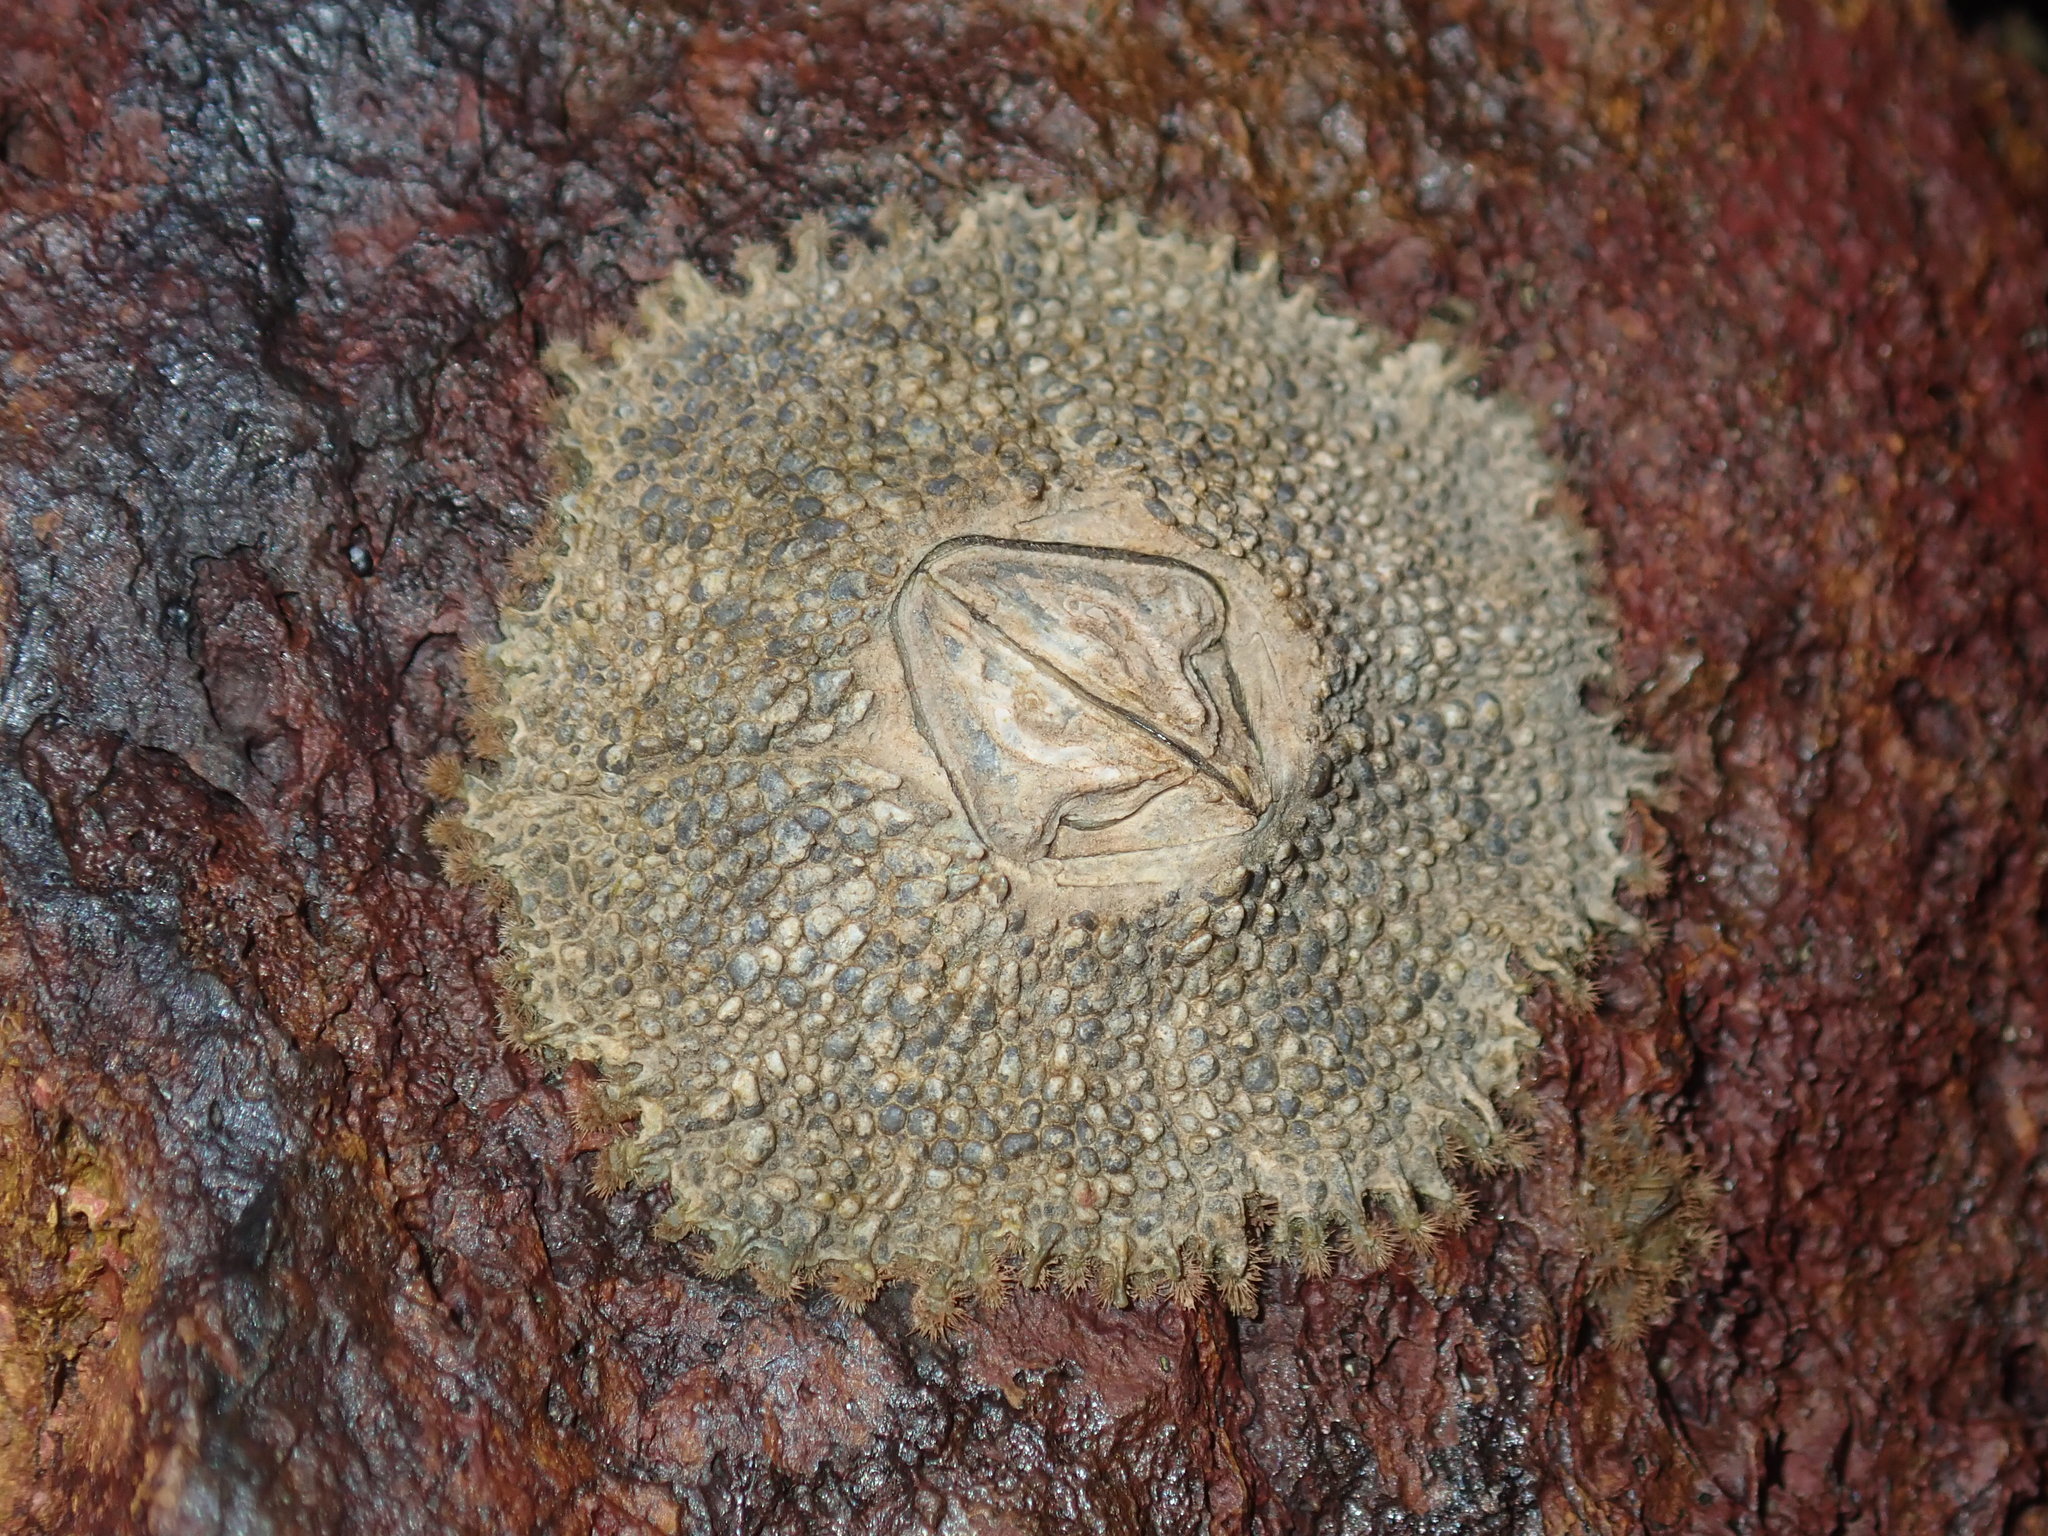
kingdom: Animalia
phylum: Arthropoda
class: Maxillopoda
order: Sessilia
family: Tetraclitidae
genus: Tetraclitella
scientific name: Tetraclitella purpurascens
